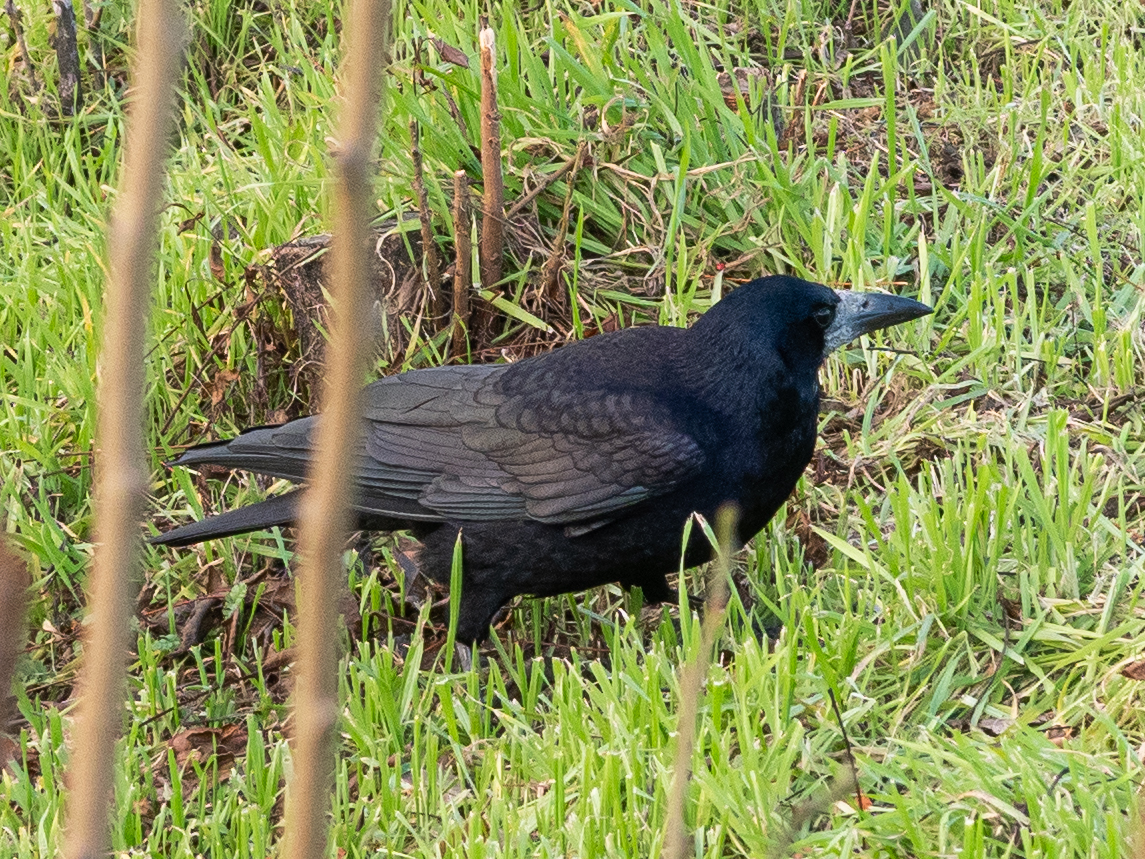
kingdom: Animalia
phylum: Chordata
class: Aves
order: Passeriformes
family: Corvidae
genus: Corvus
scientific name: Corvus frugilegus
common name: Rook
